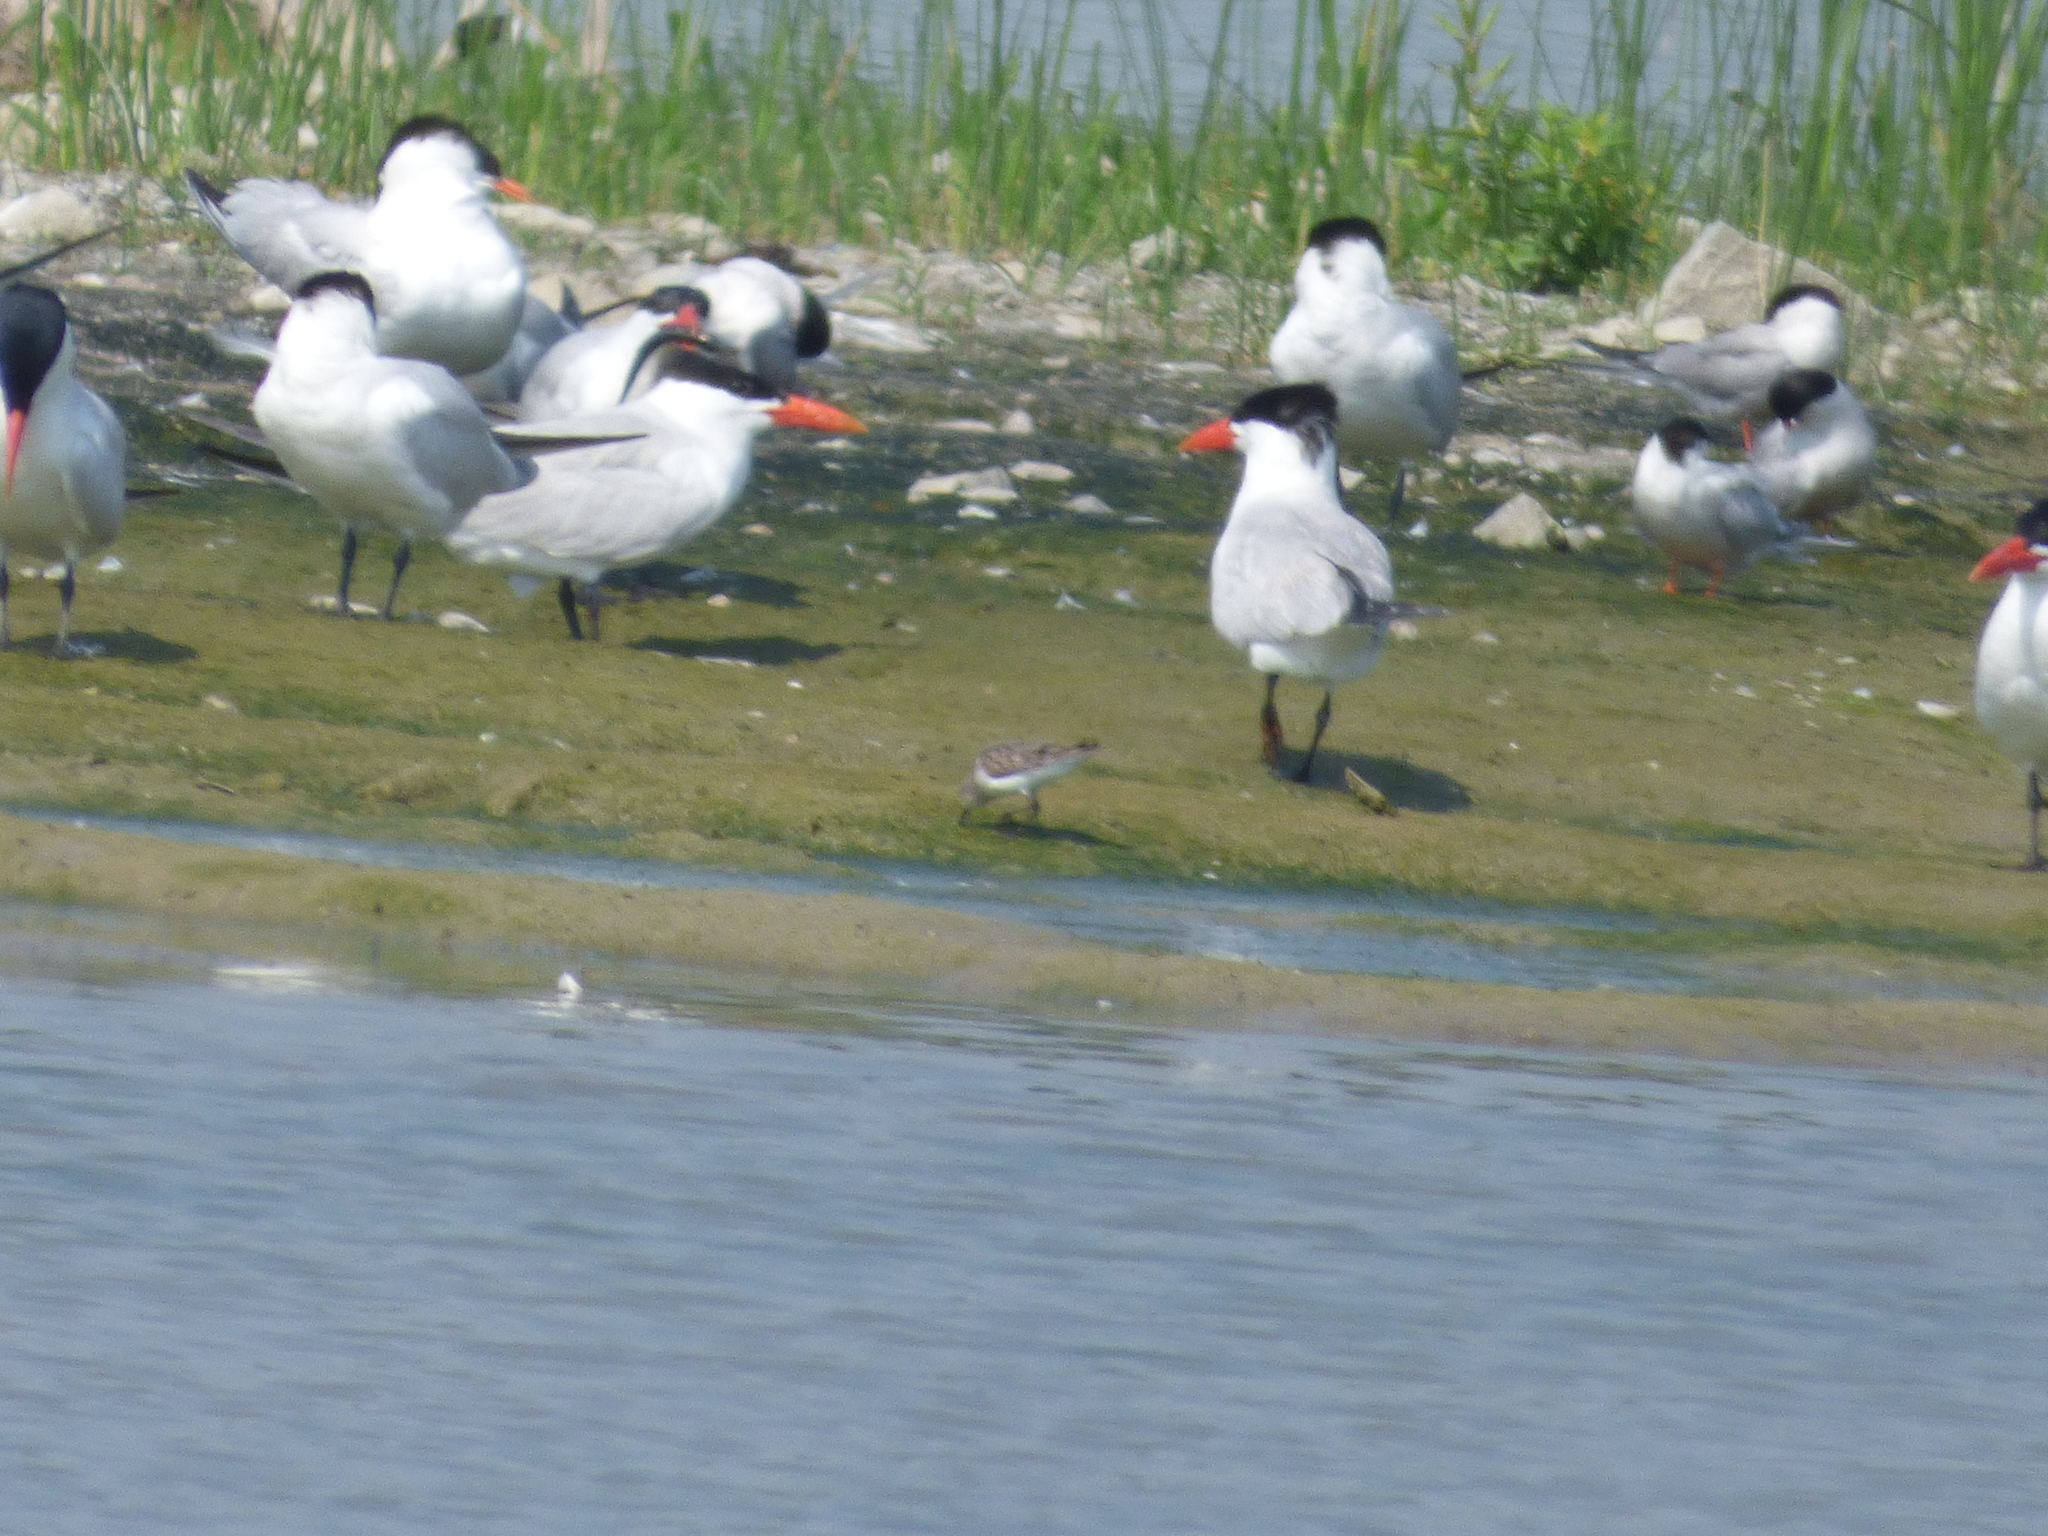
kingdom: Animalia
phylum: Chordata
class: Aves
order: Charadriiformes
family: Laridae
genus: Hydroprogne
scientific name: Hydroprogne caspia
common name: Caspian tern
